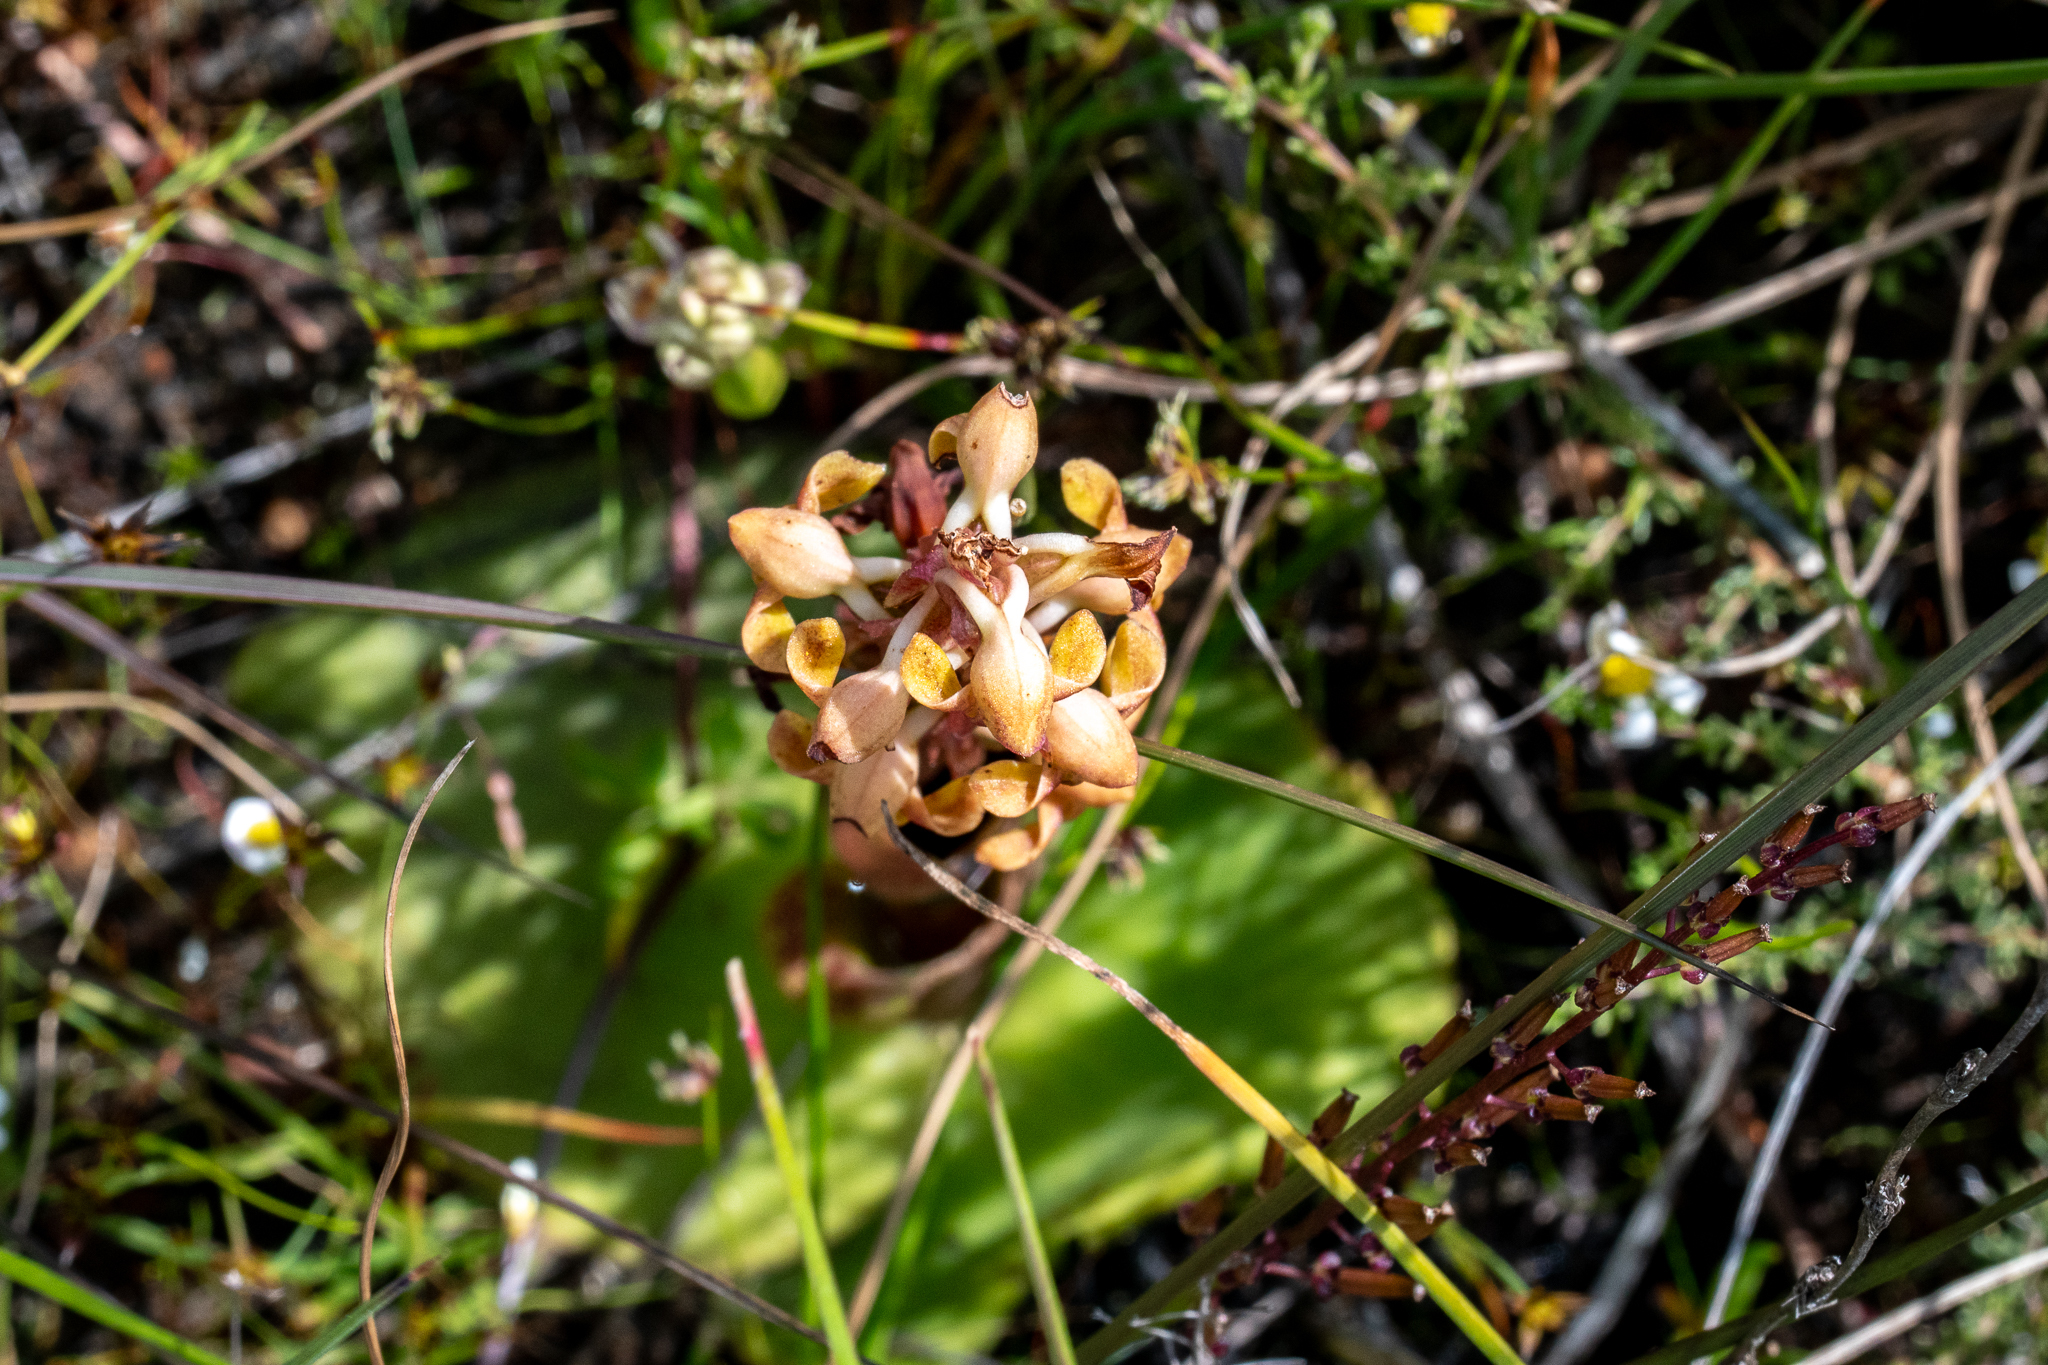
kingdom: Plantae
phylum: Tracheophyta
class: Liliopsida
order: Asparagales
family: Orchidaceae
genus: Satyrium
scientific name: Satyrium bicorne
